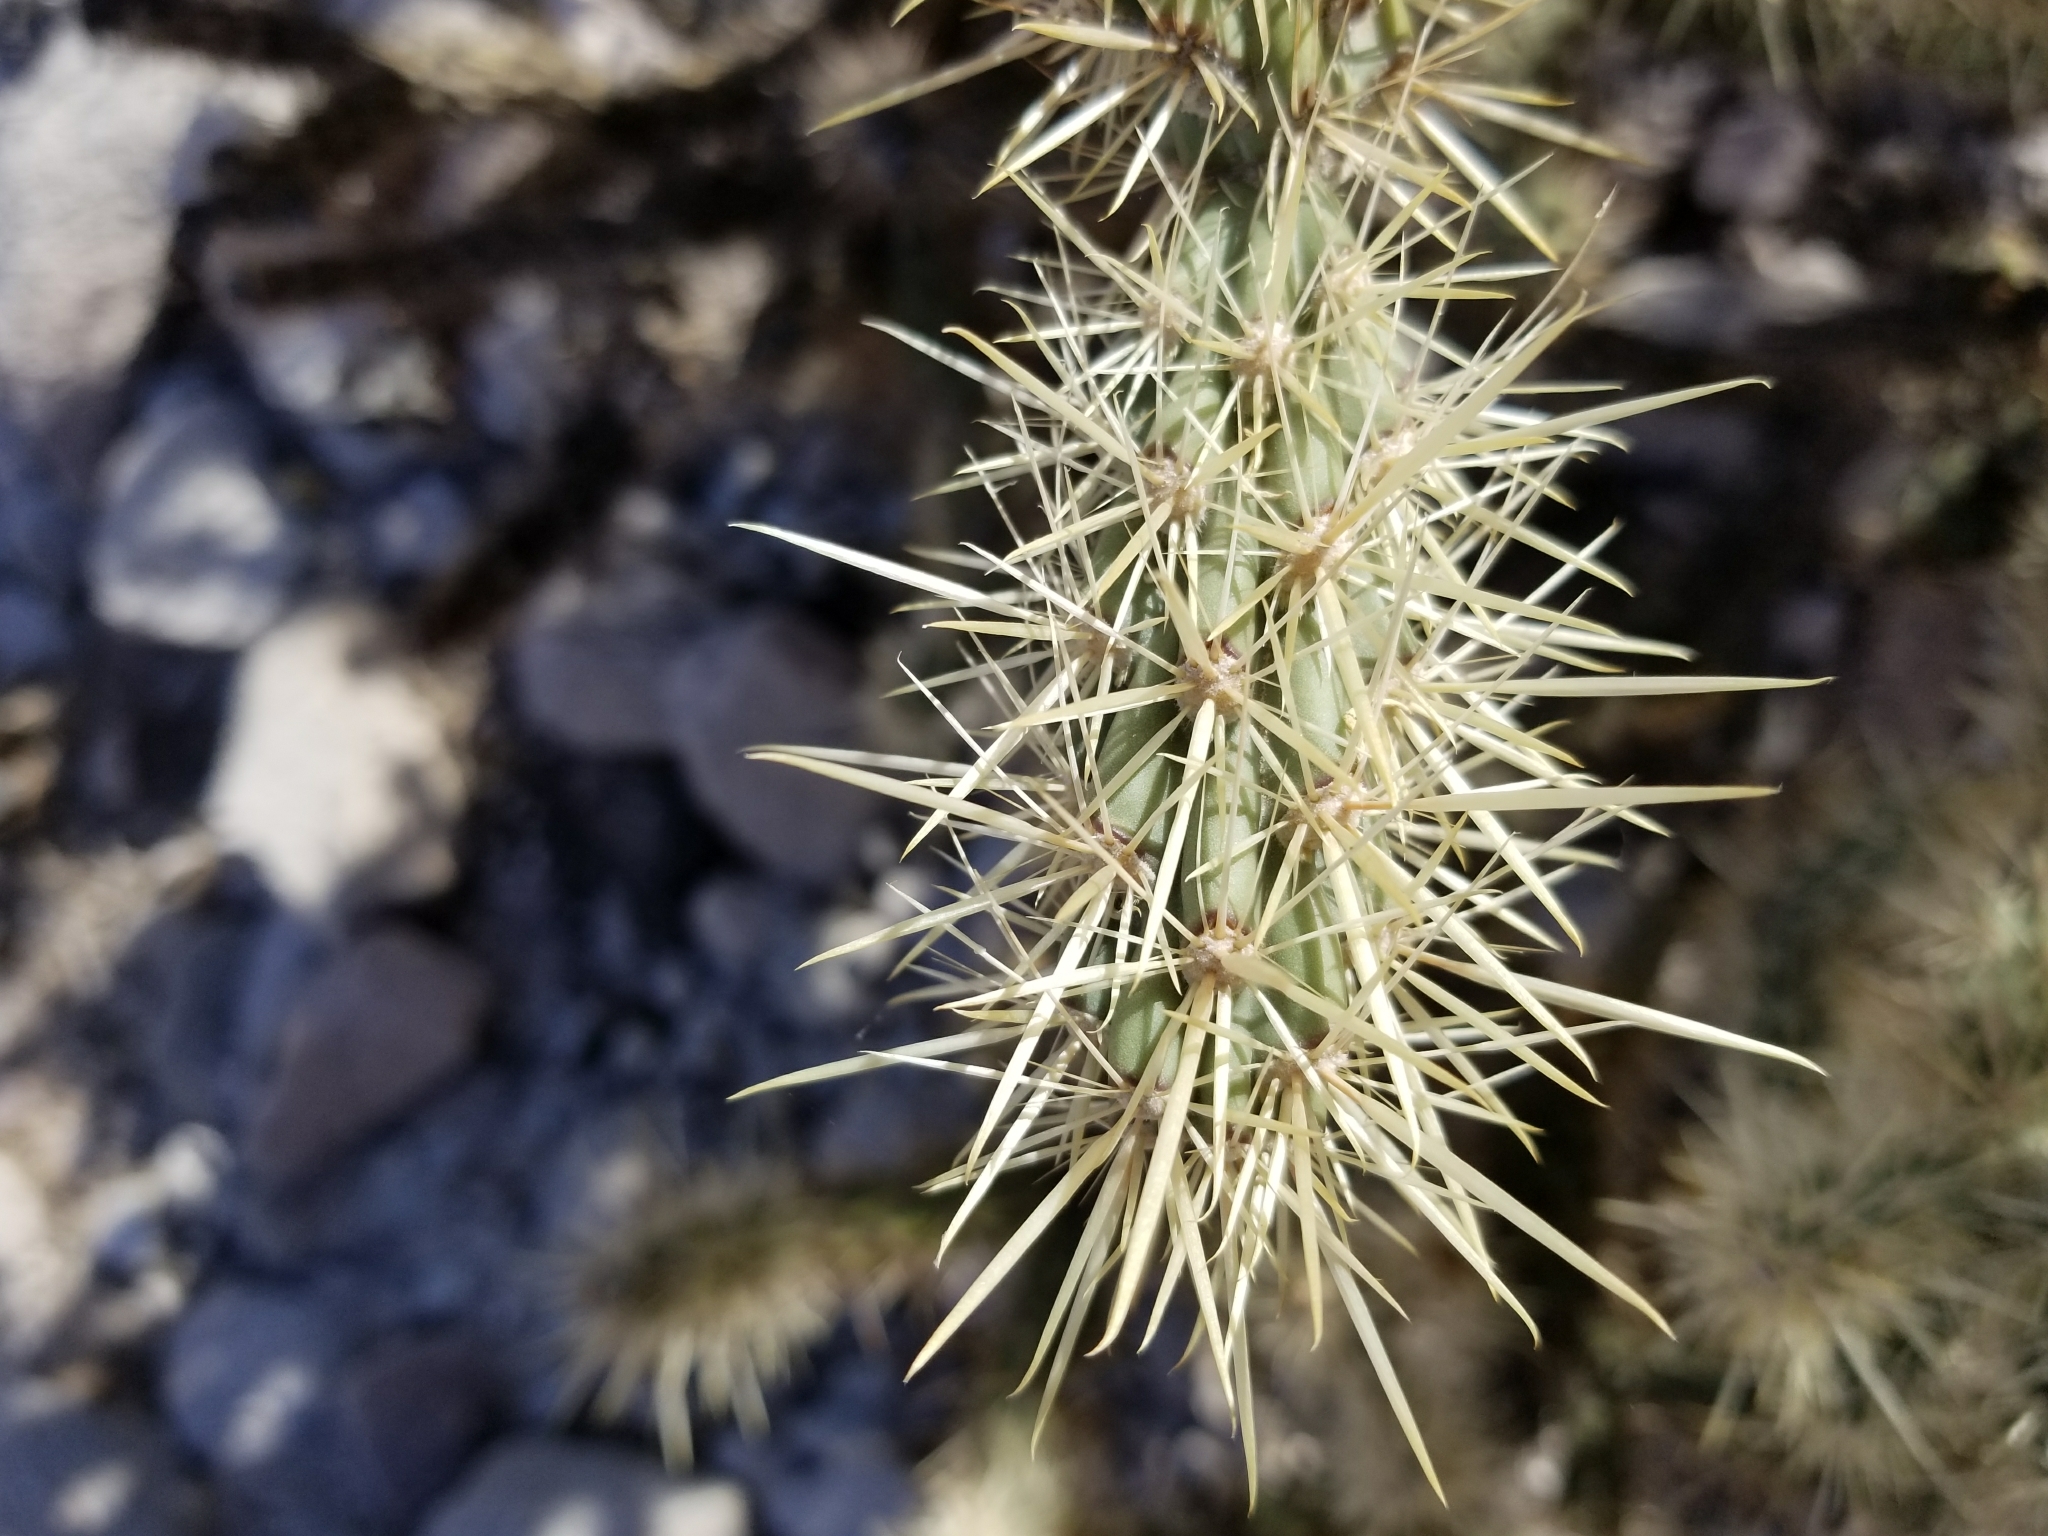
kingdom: Plantae
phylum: Tracheophyta
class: Magnoliopsida
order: Caryophyllales
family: Cactaceae
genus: Cylindropuntia
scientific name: Cylindropuntia acanthocarpa
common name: Buckhorn cholla
